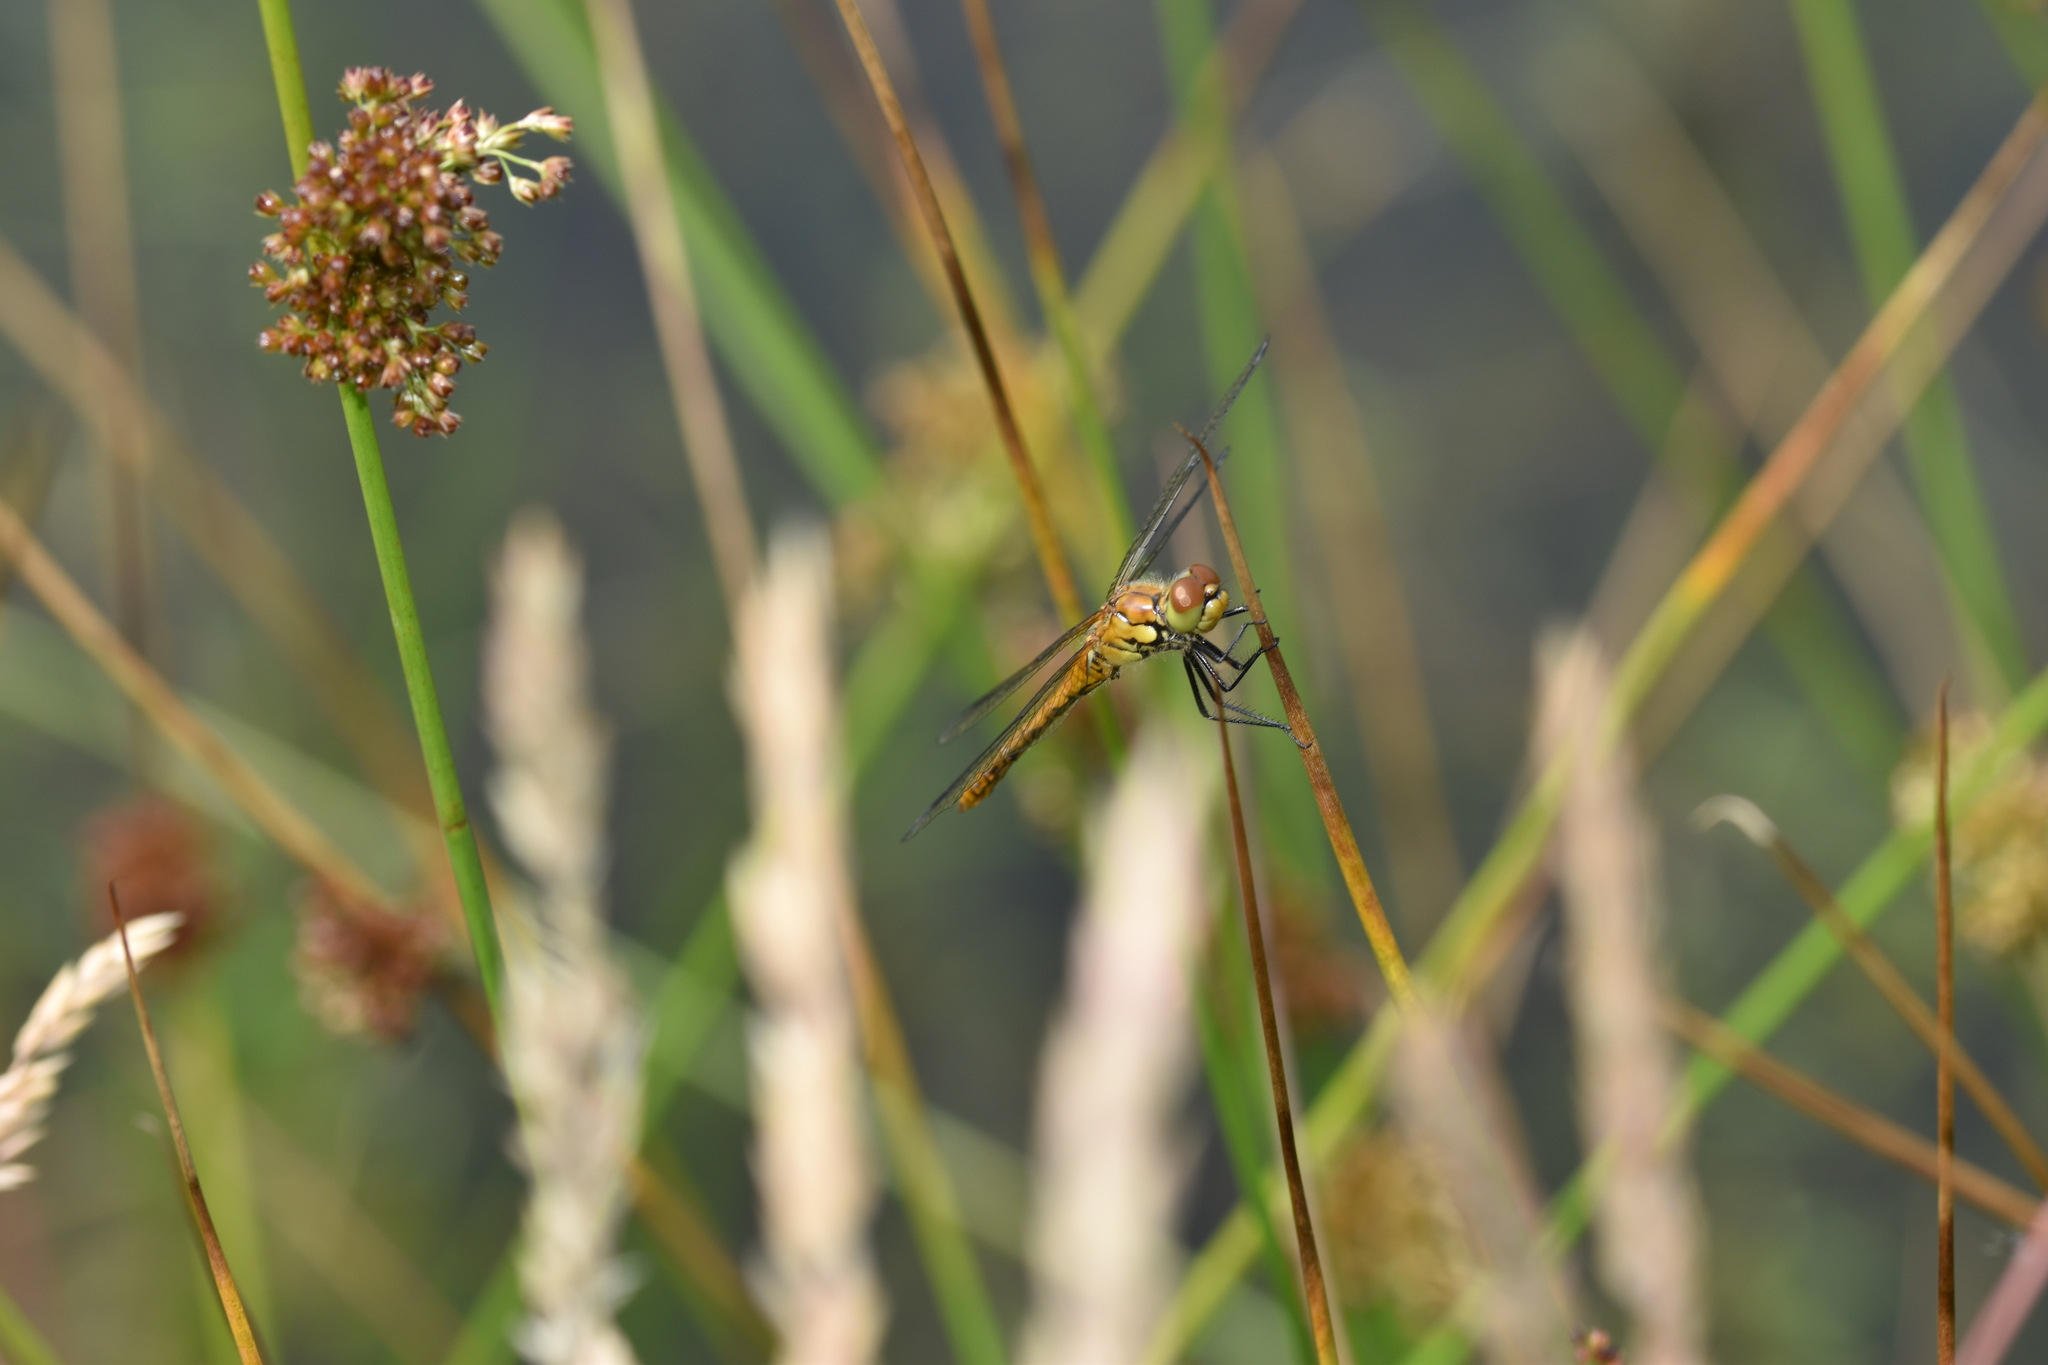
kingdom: Animalia
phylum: Arthropoda
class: Insecta
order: Odonata
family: Libellulidae
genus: Sympetrum
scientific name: Sympetrum sanguineum
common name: Ruddy darter
